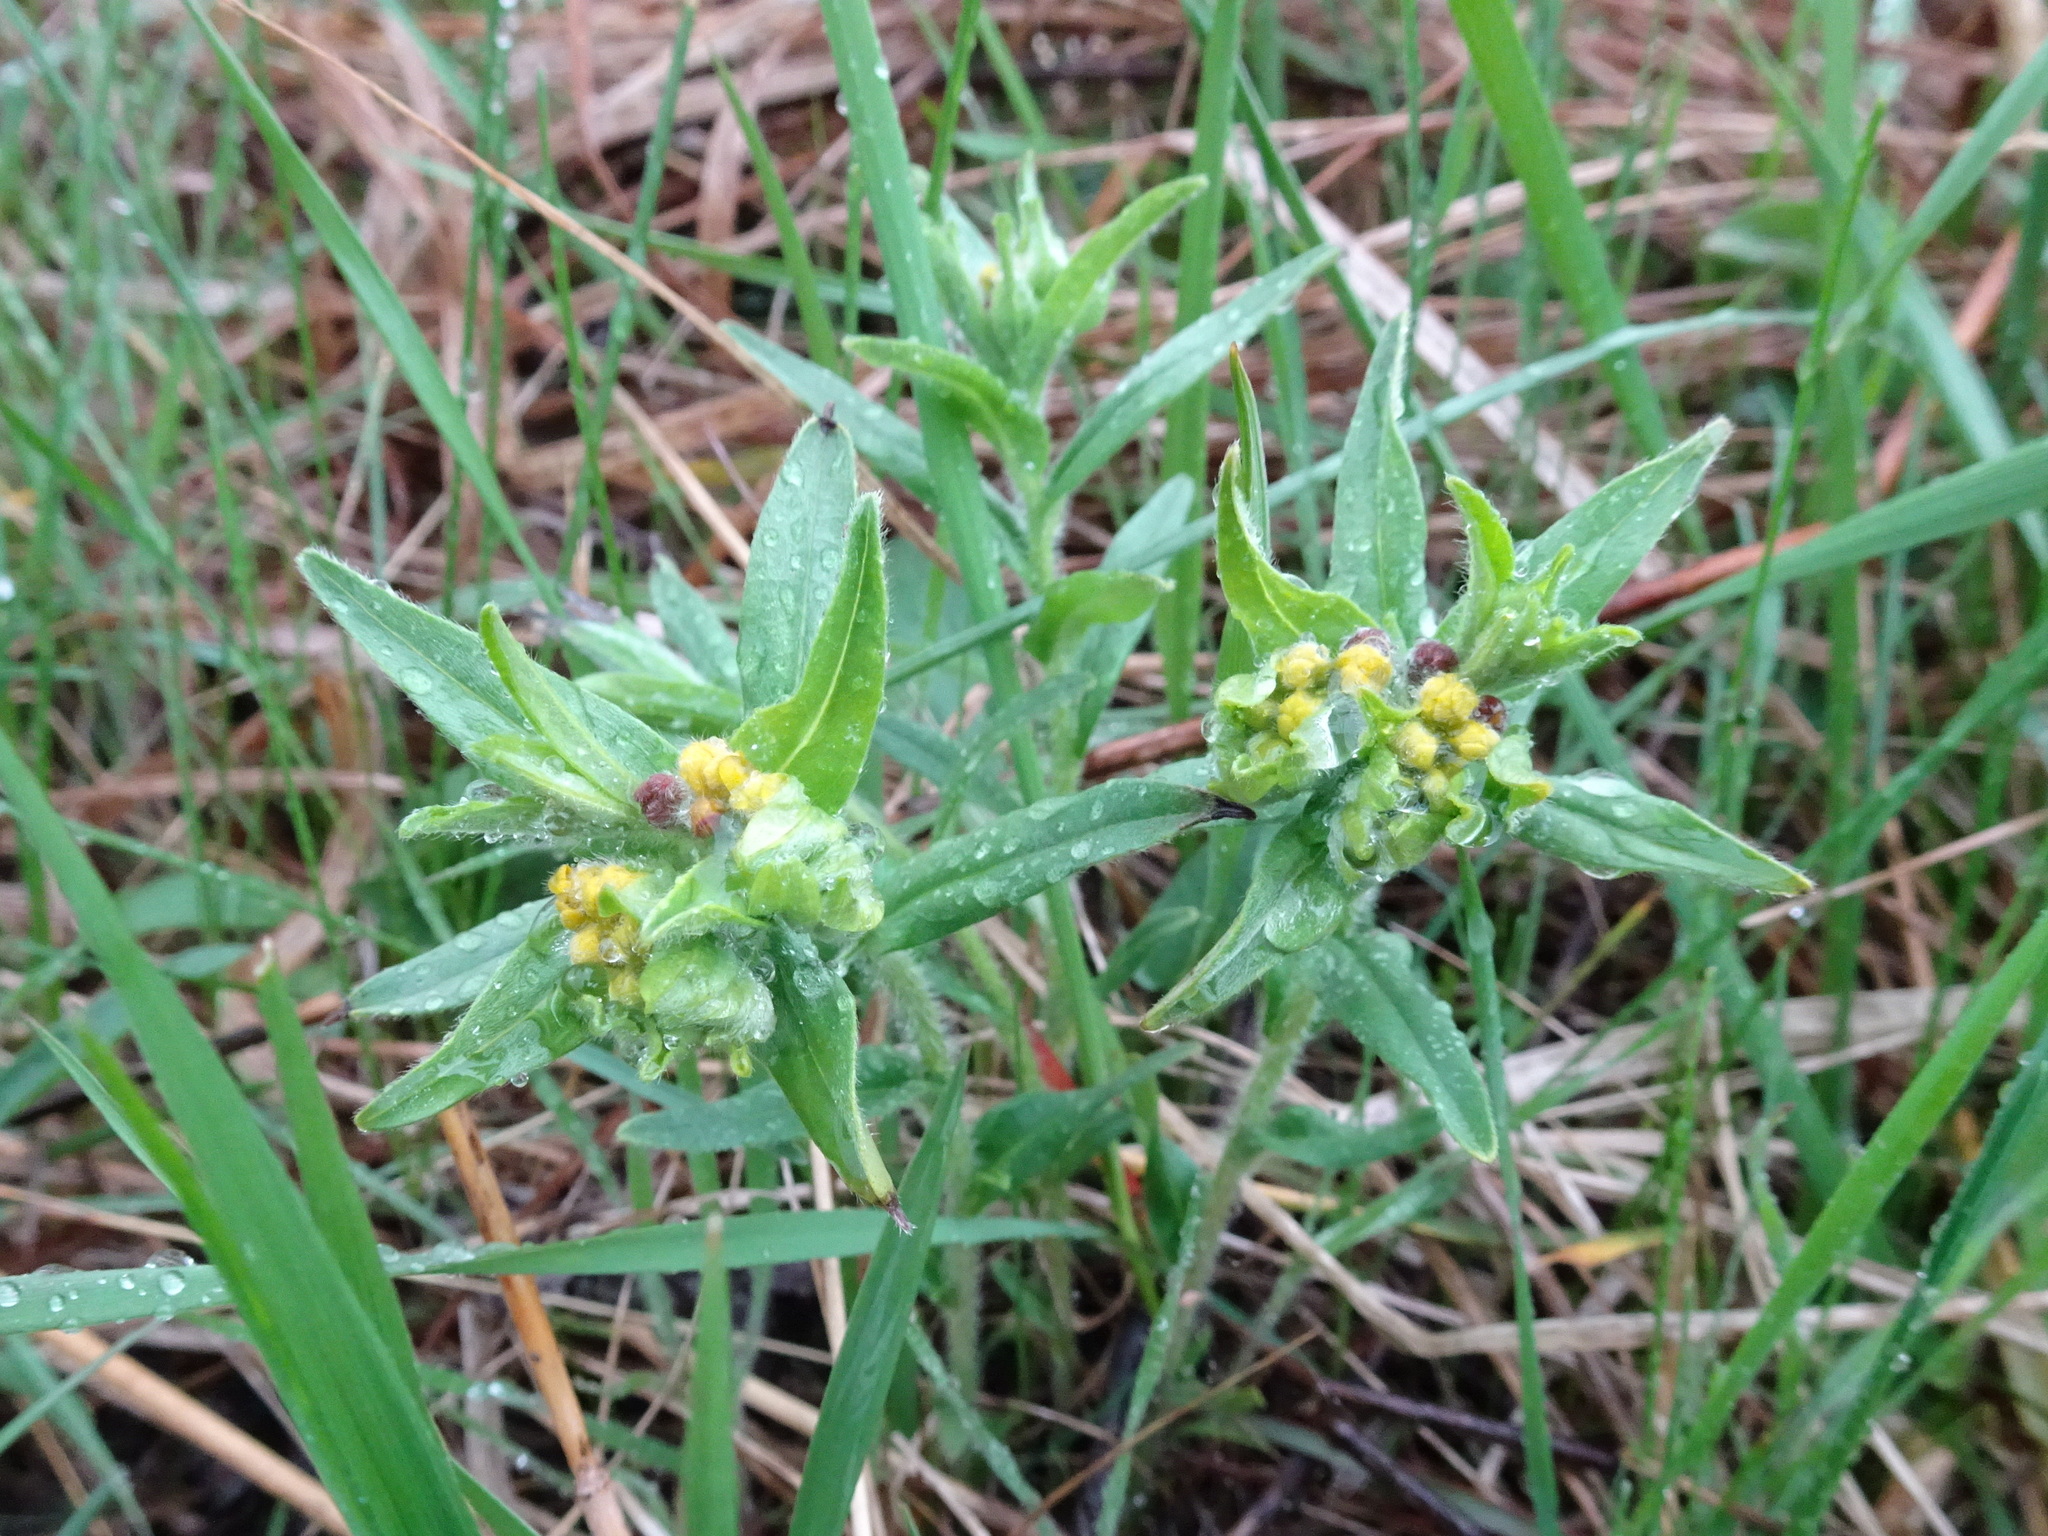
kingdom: Plantae
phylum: Tracheophyta
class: Magnoliopsida
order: Boraginales
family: Boraginaceae
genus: Lithospermum
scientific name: Lithospermum canescens
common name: Hoary puccoon
